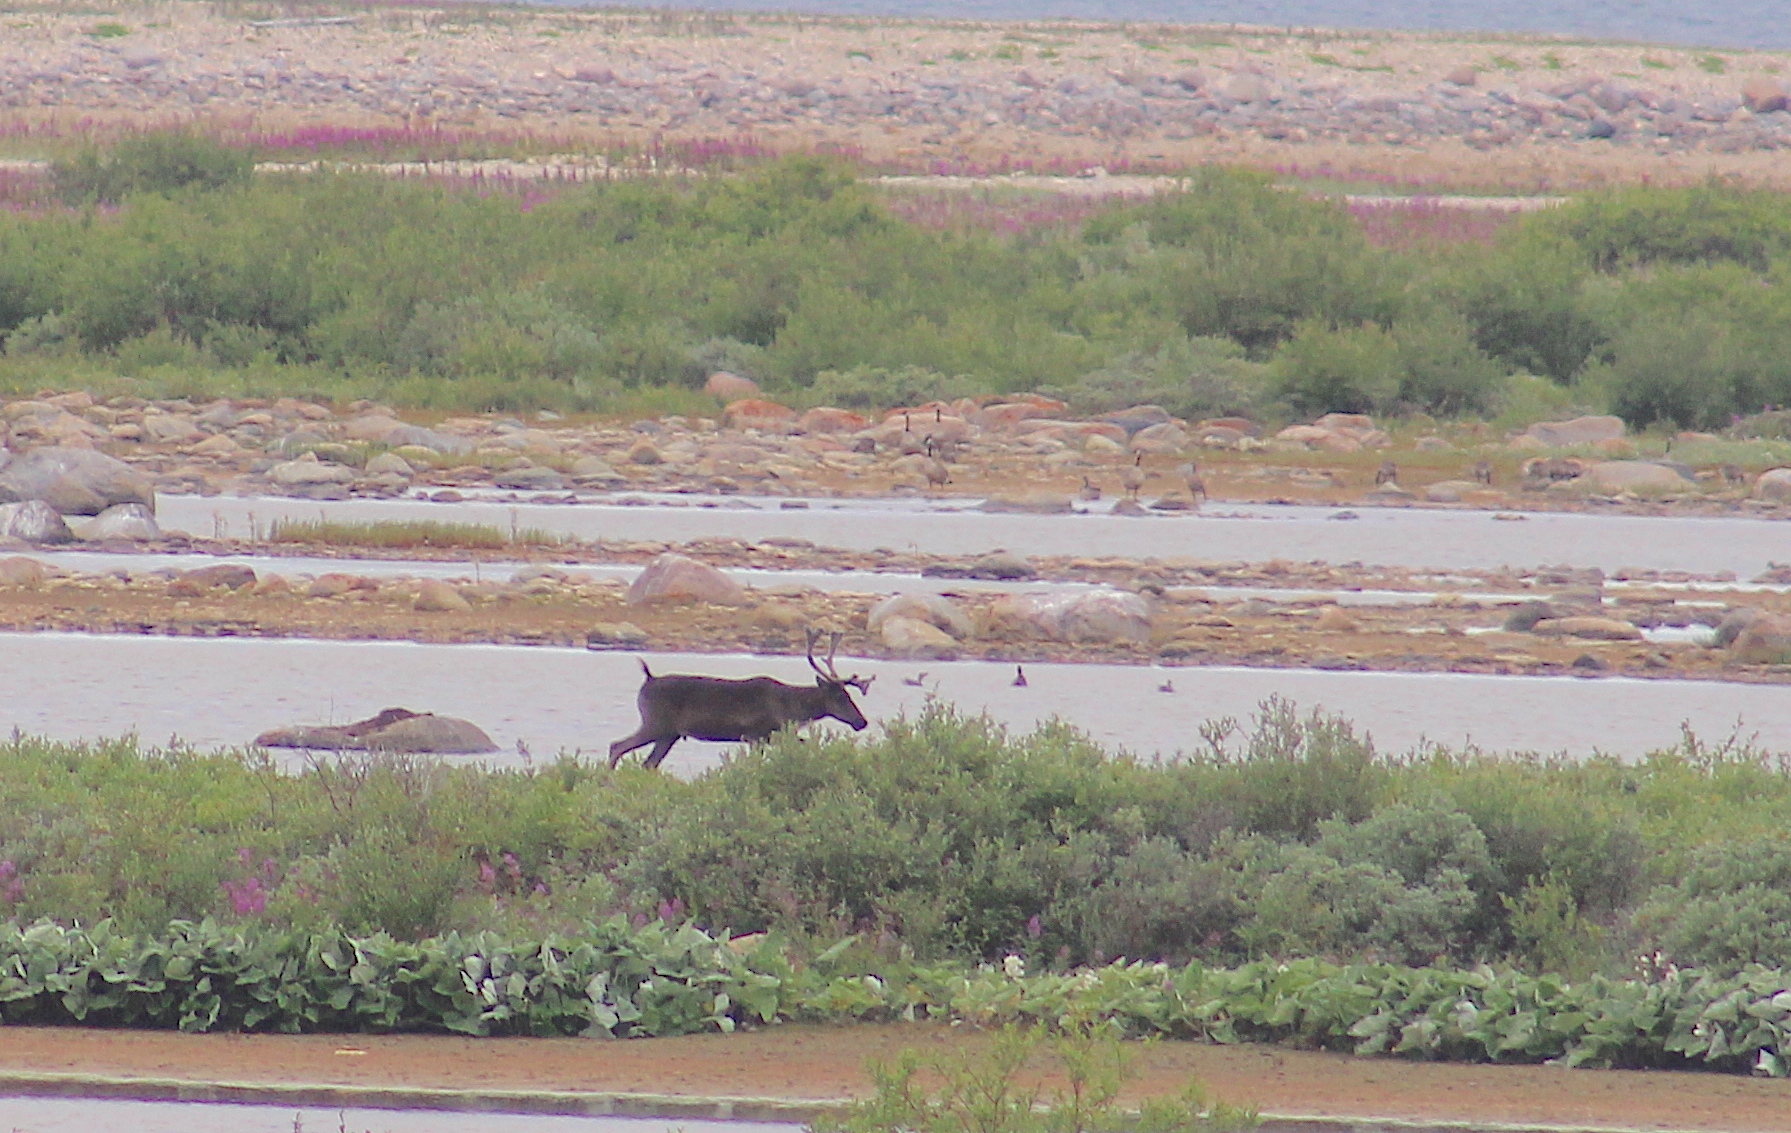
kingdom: Animalia
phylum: Chordata
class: Mammalia
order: Artiodactyla
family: Cervidae
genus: Rangifer
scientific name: Rangifer tarandus
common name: Reindeer
